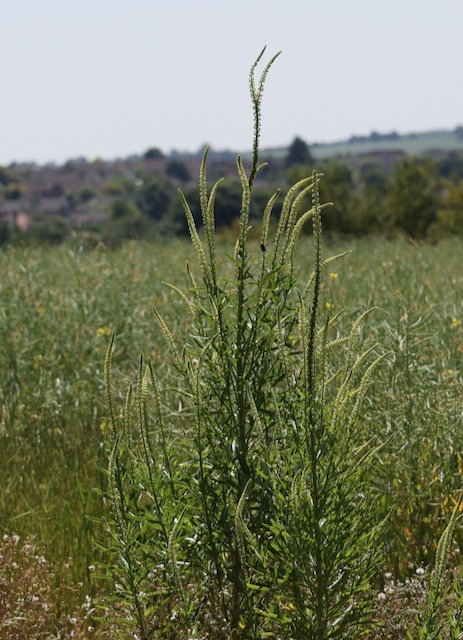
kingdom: Plantae
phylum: Tracheophyta
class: Magnoliopsida
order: Brassicales
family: Resedaceae
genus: Reseda
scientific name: Reseda luteola
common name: Weld
